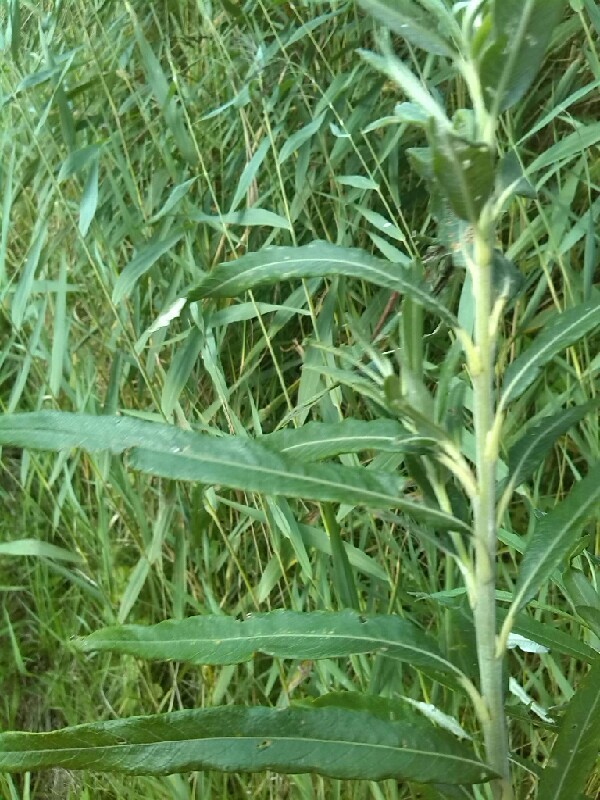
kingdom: Plantae
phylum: Tracheophyta
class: Magnoliopsida
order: Malpighiales
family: Salicaceae
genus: Salix
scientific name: Salix viminalis
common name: Osier
